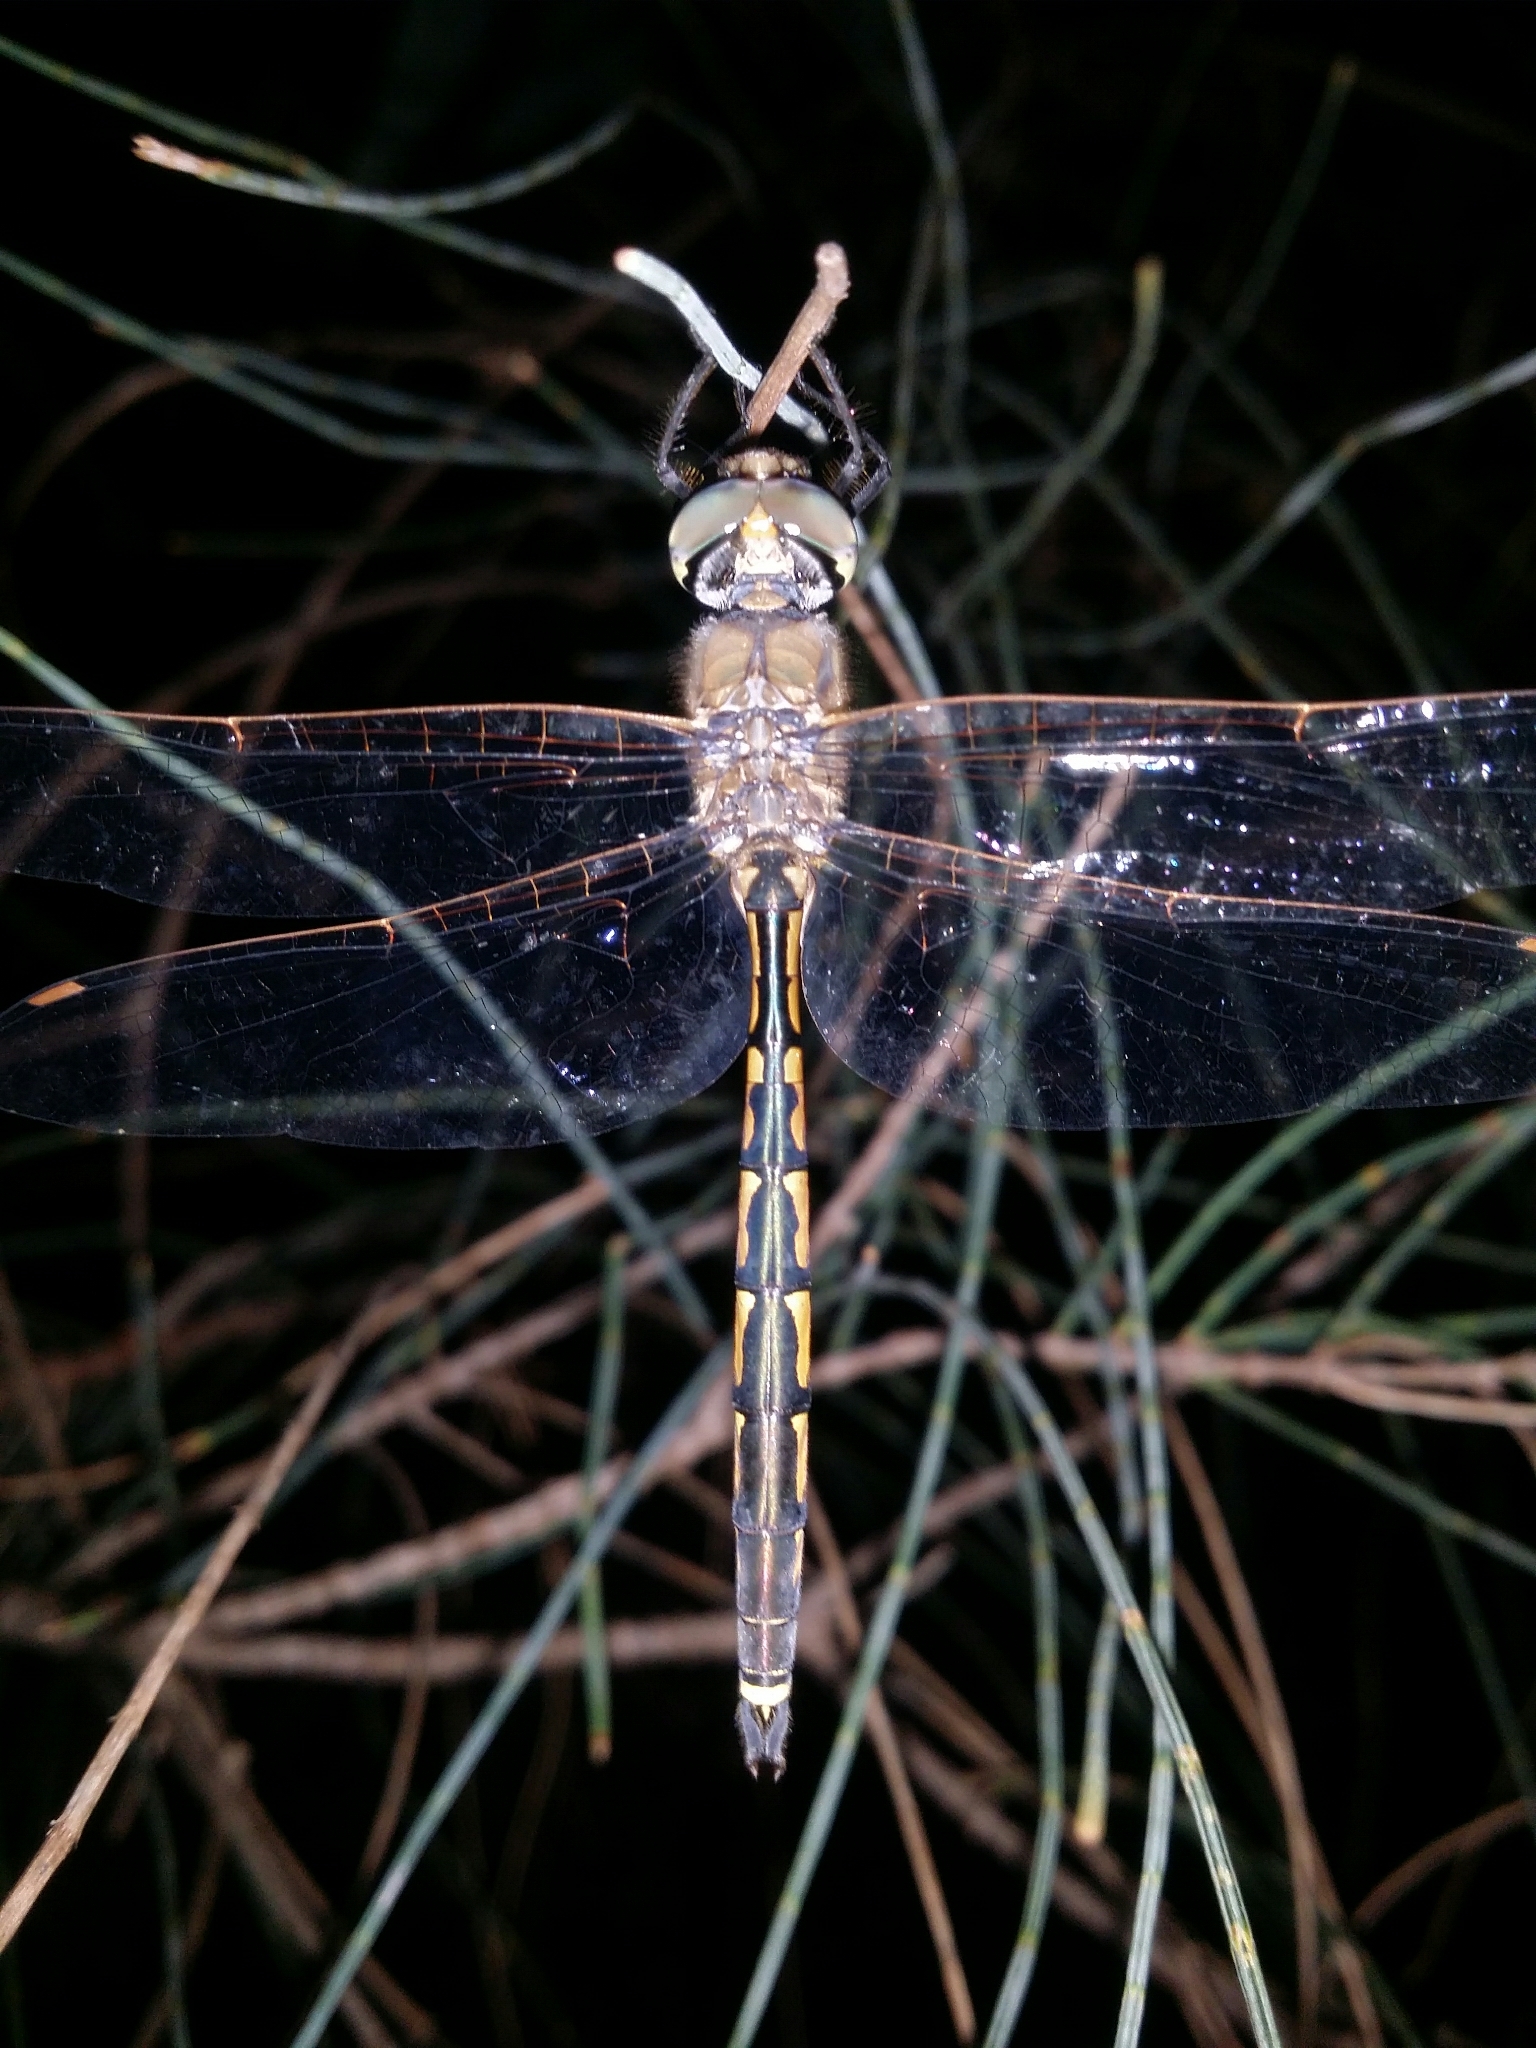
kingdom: Animalia
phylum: Arthropoda
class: Insecta
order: Odonata
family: Corduliidae
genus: Hemicordulia
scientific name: Hemicordulia tau
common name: Tau emerald
